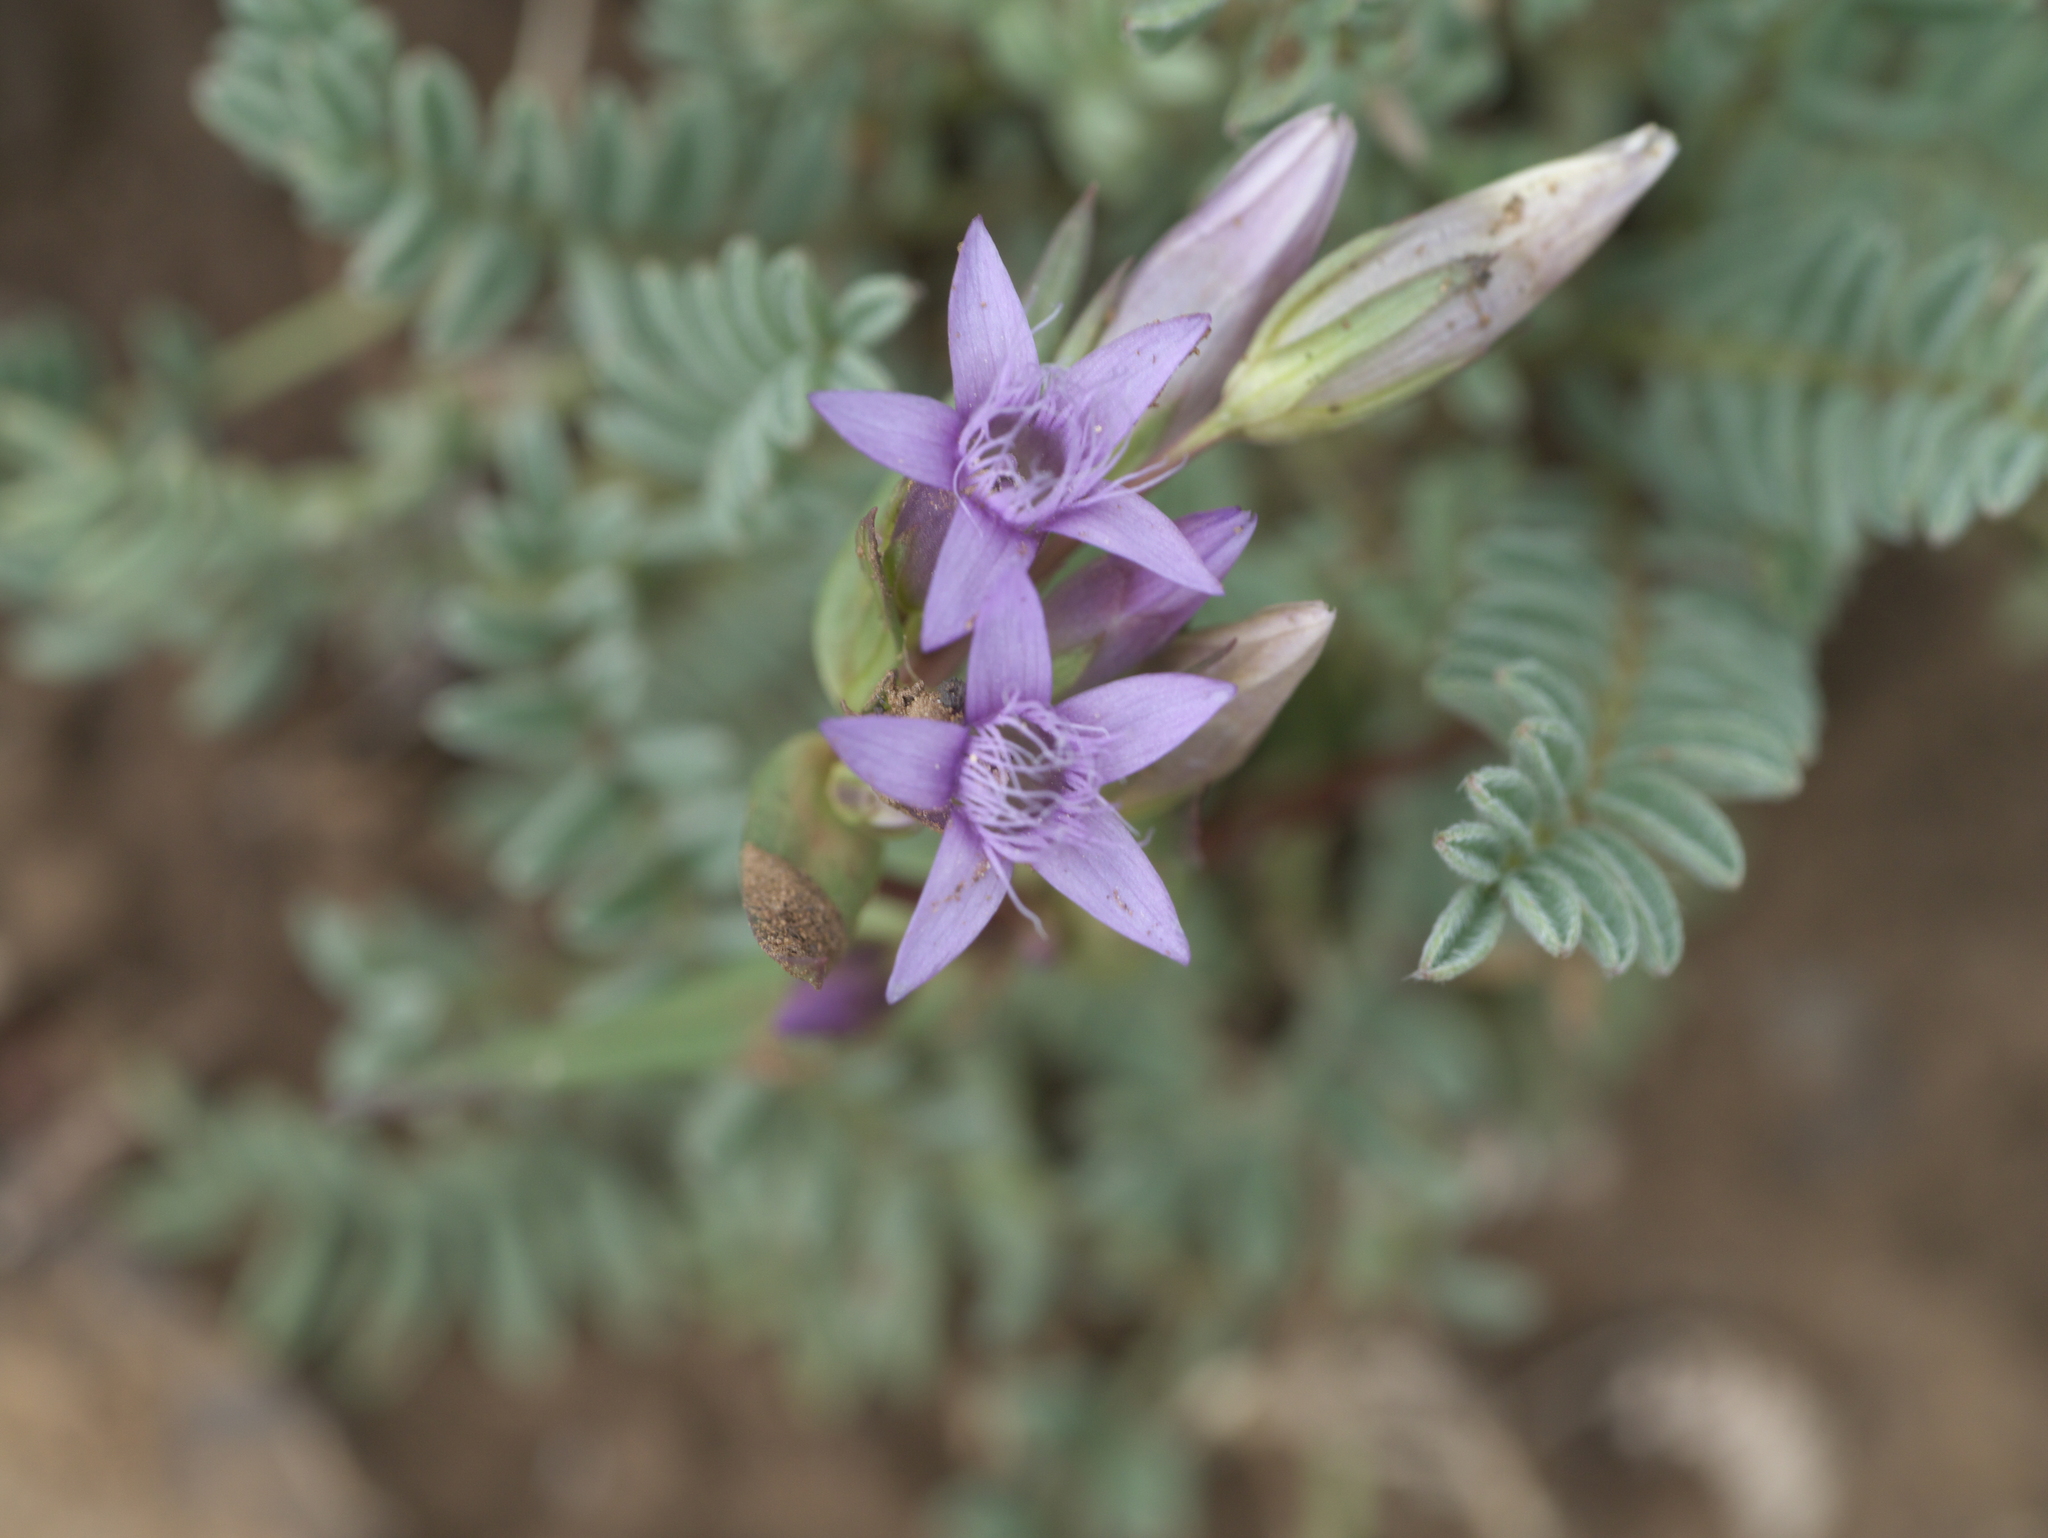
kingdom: Plantae
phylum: Tracheophyta
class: Magnoliopsida
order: Gentianales
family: Gentianaceae
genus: Gentianella
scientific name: Gentianella amarella
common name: Autumn gentian
